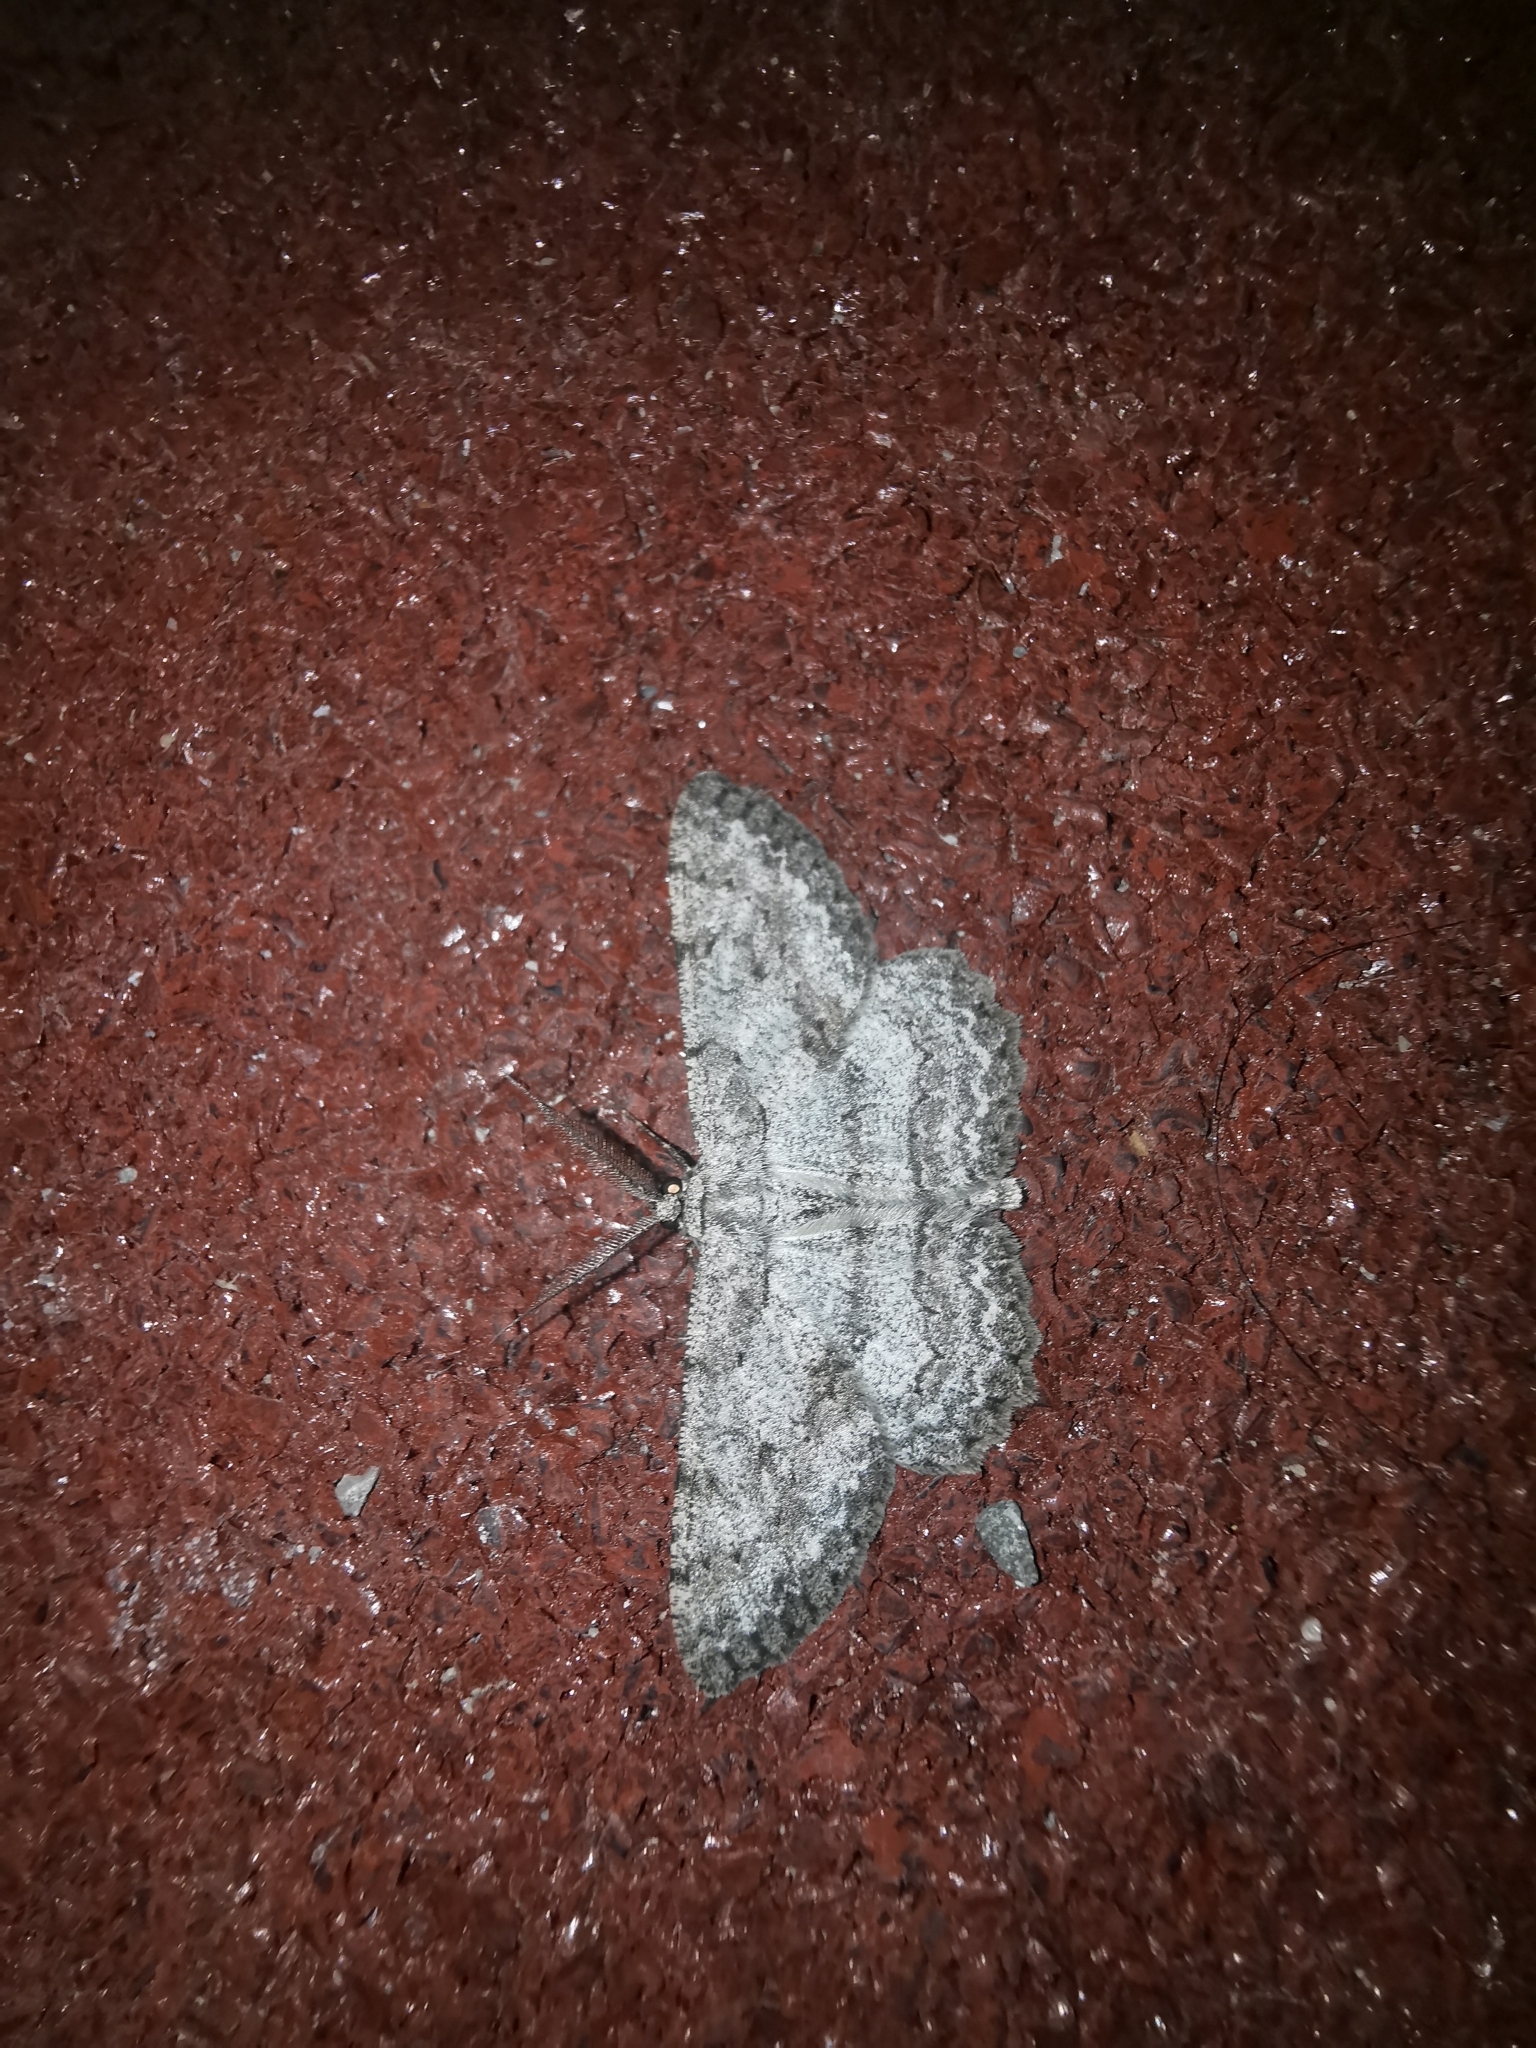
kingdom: Animalia
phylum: Arthropoda
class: Insecta
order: Lepidoptera
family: Geometridae
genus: Hypomecis
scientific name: Hypomecis punctinalis
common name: Pale oak beauty
